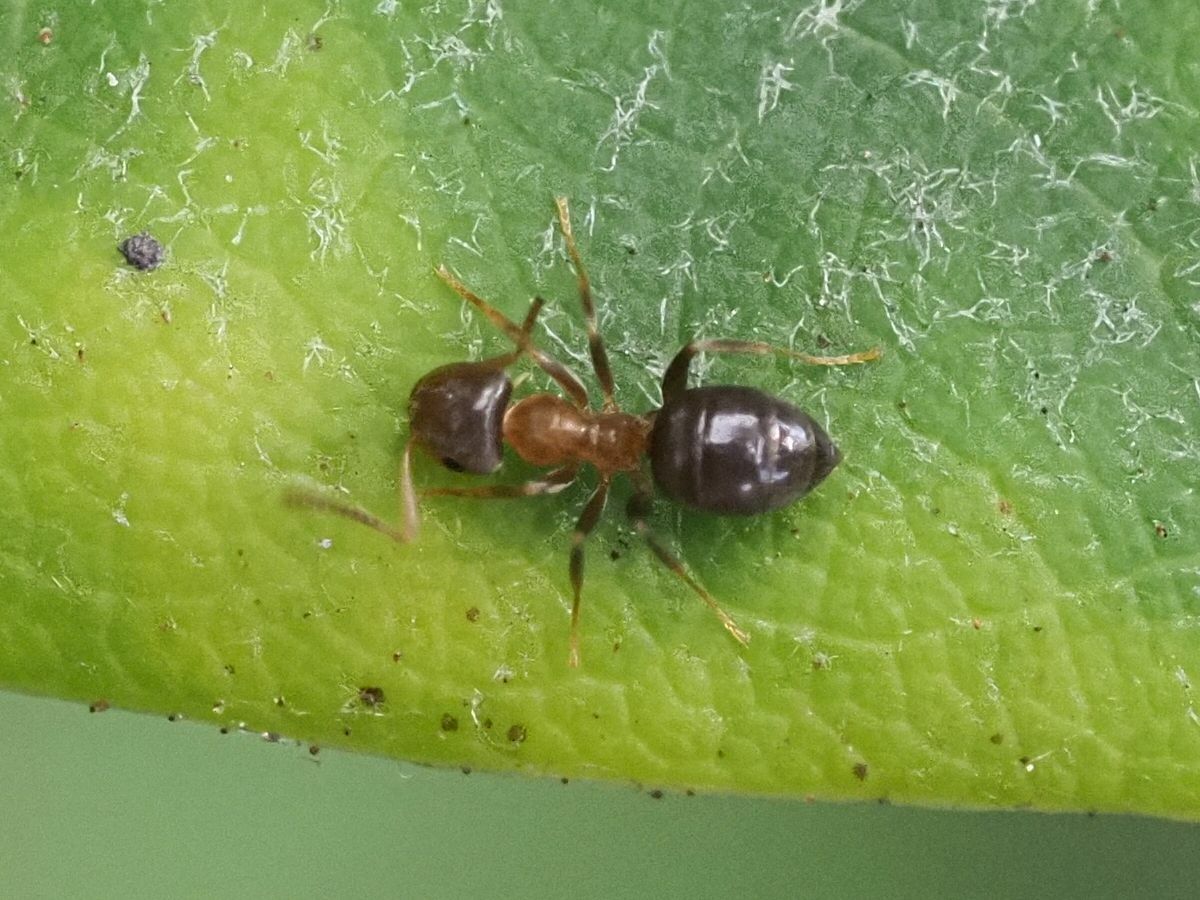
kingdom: Animalia
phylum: Arthropoda
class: Insecta
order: Hymenoptera
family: Formicidae
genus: Lasius
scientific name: Lasius brunneus
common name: Brown ant
